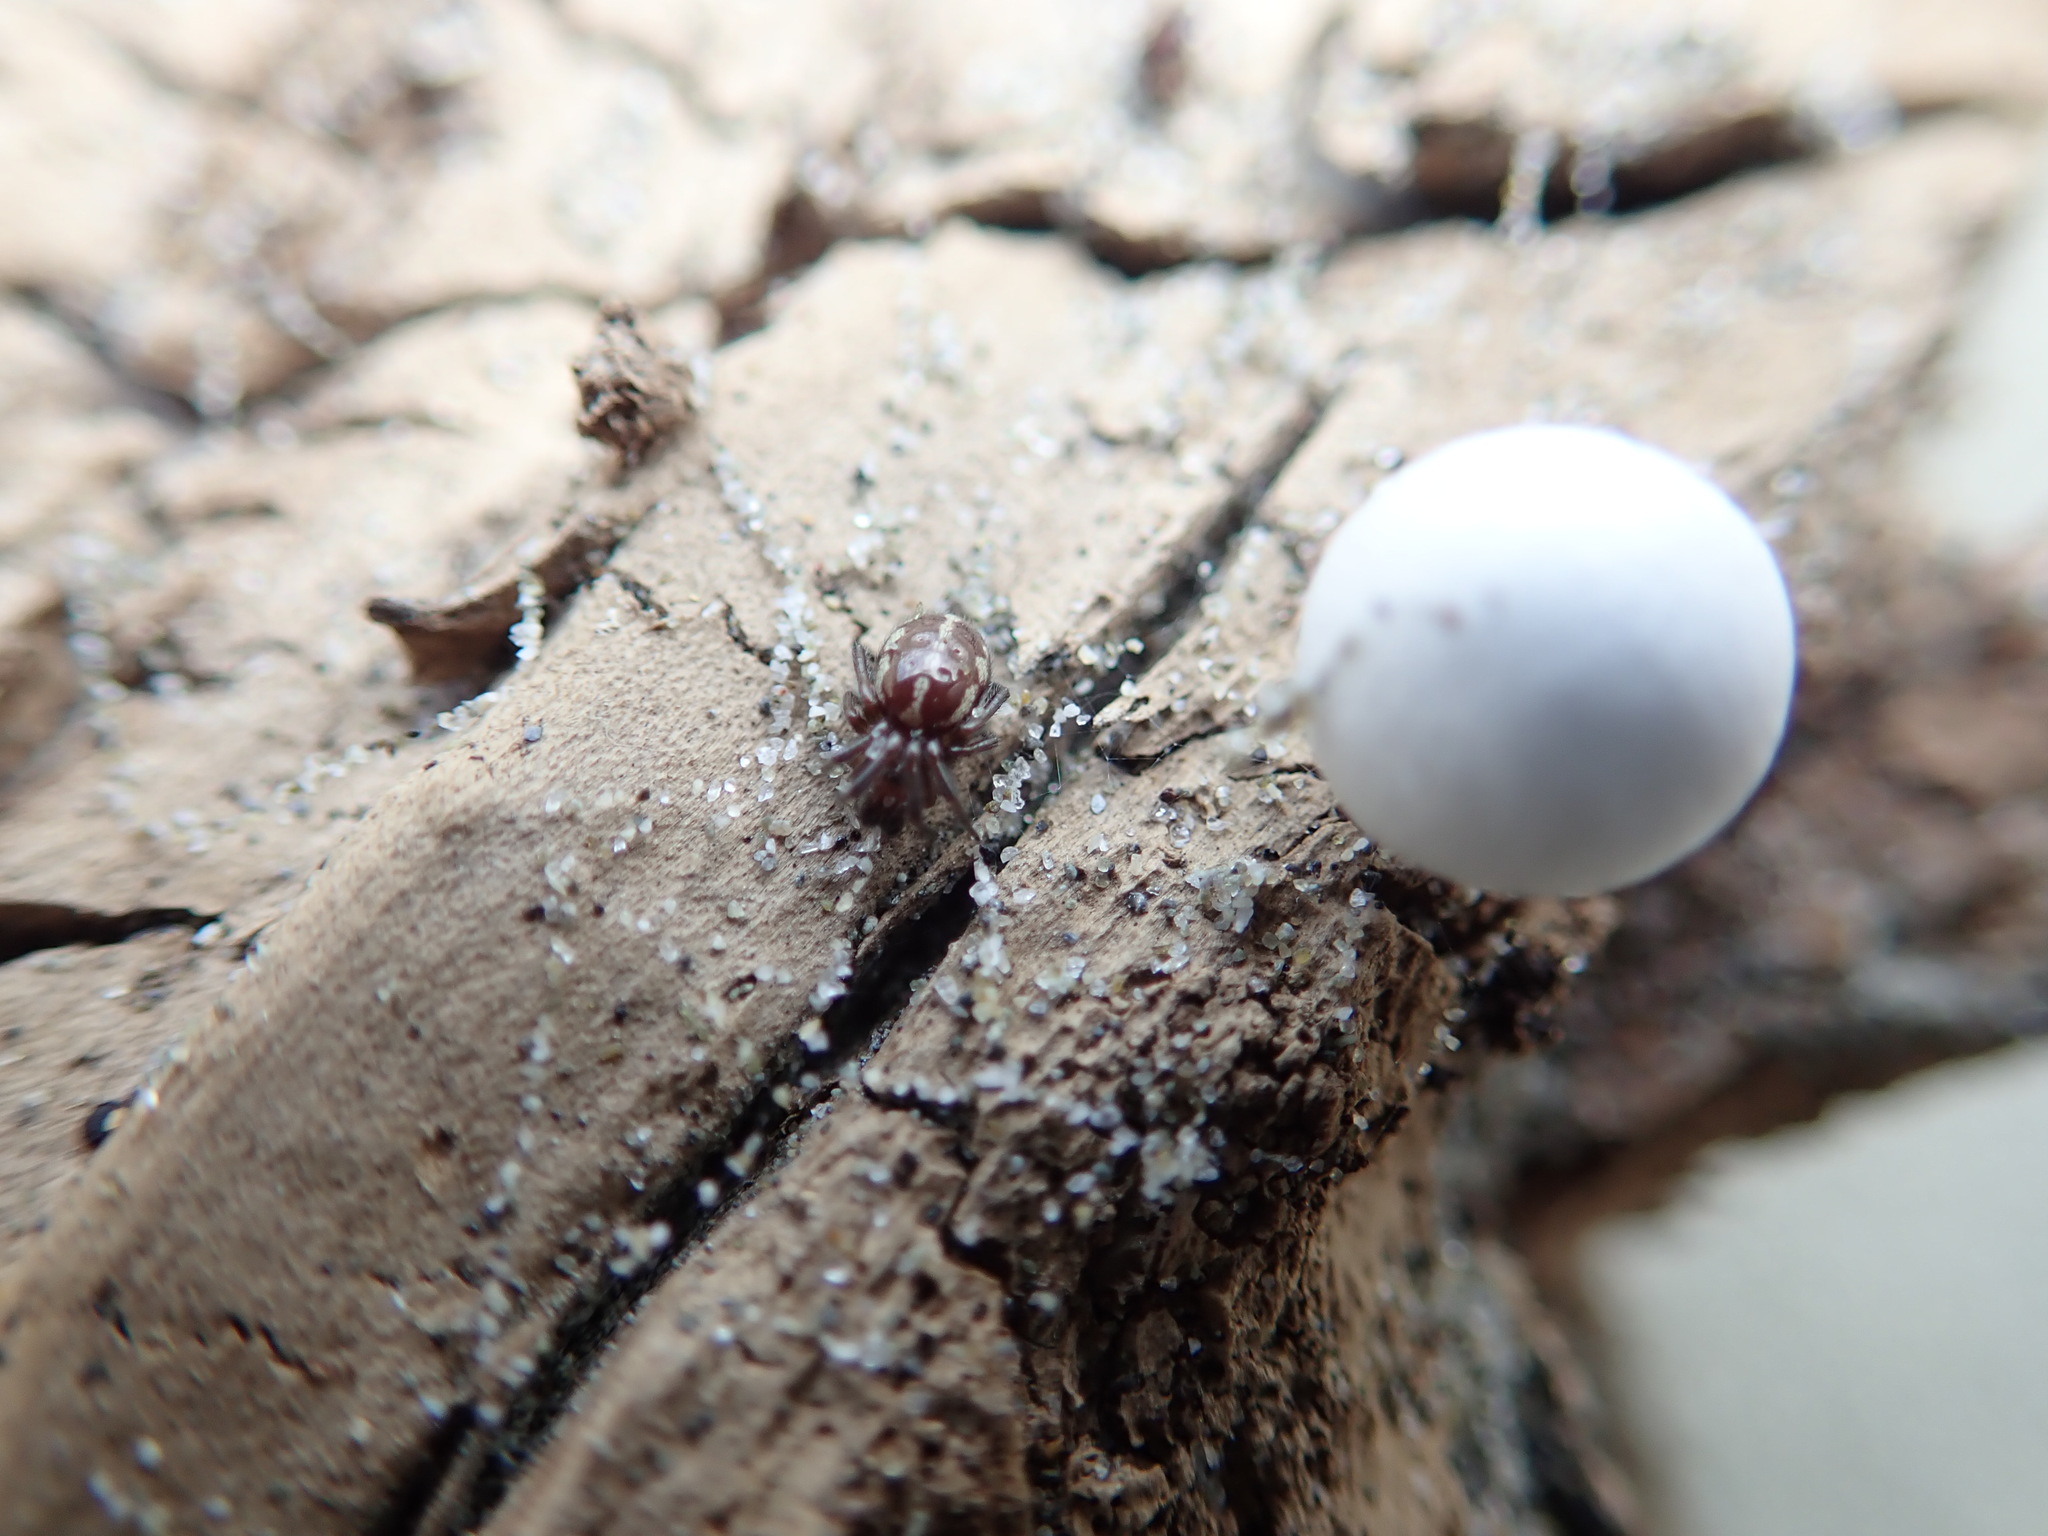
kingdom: Animalia
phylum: Arthropoda
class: Arachnida
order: Araneae
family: Theridiidae
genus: Steatoda
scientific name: Steatoda lepida
